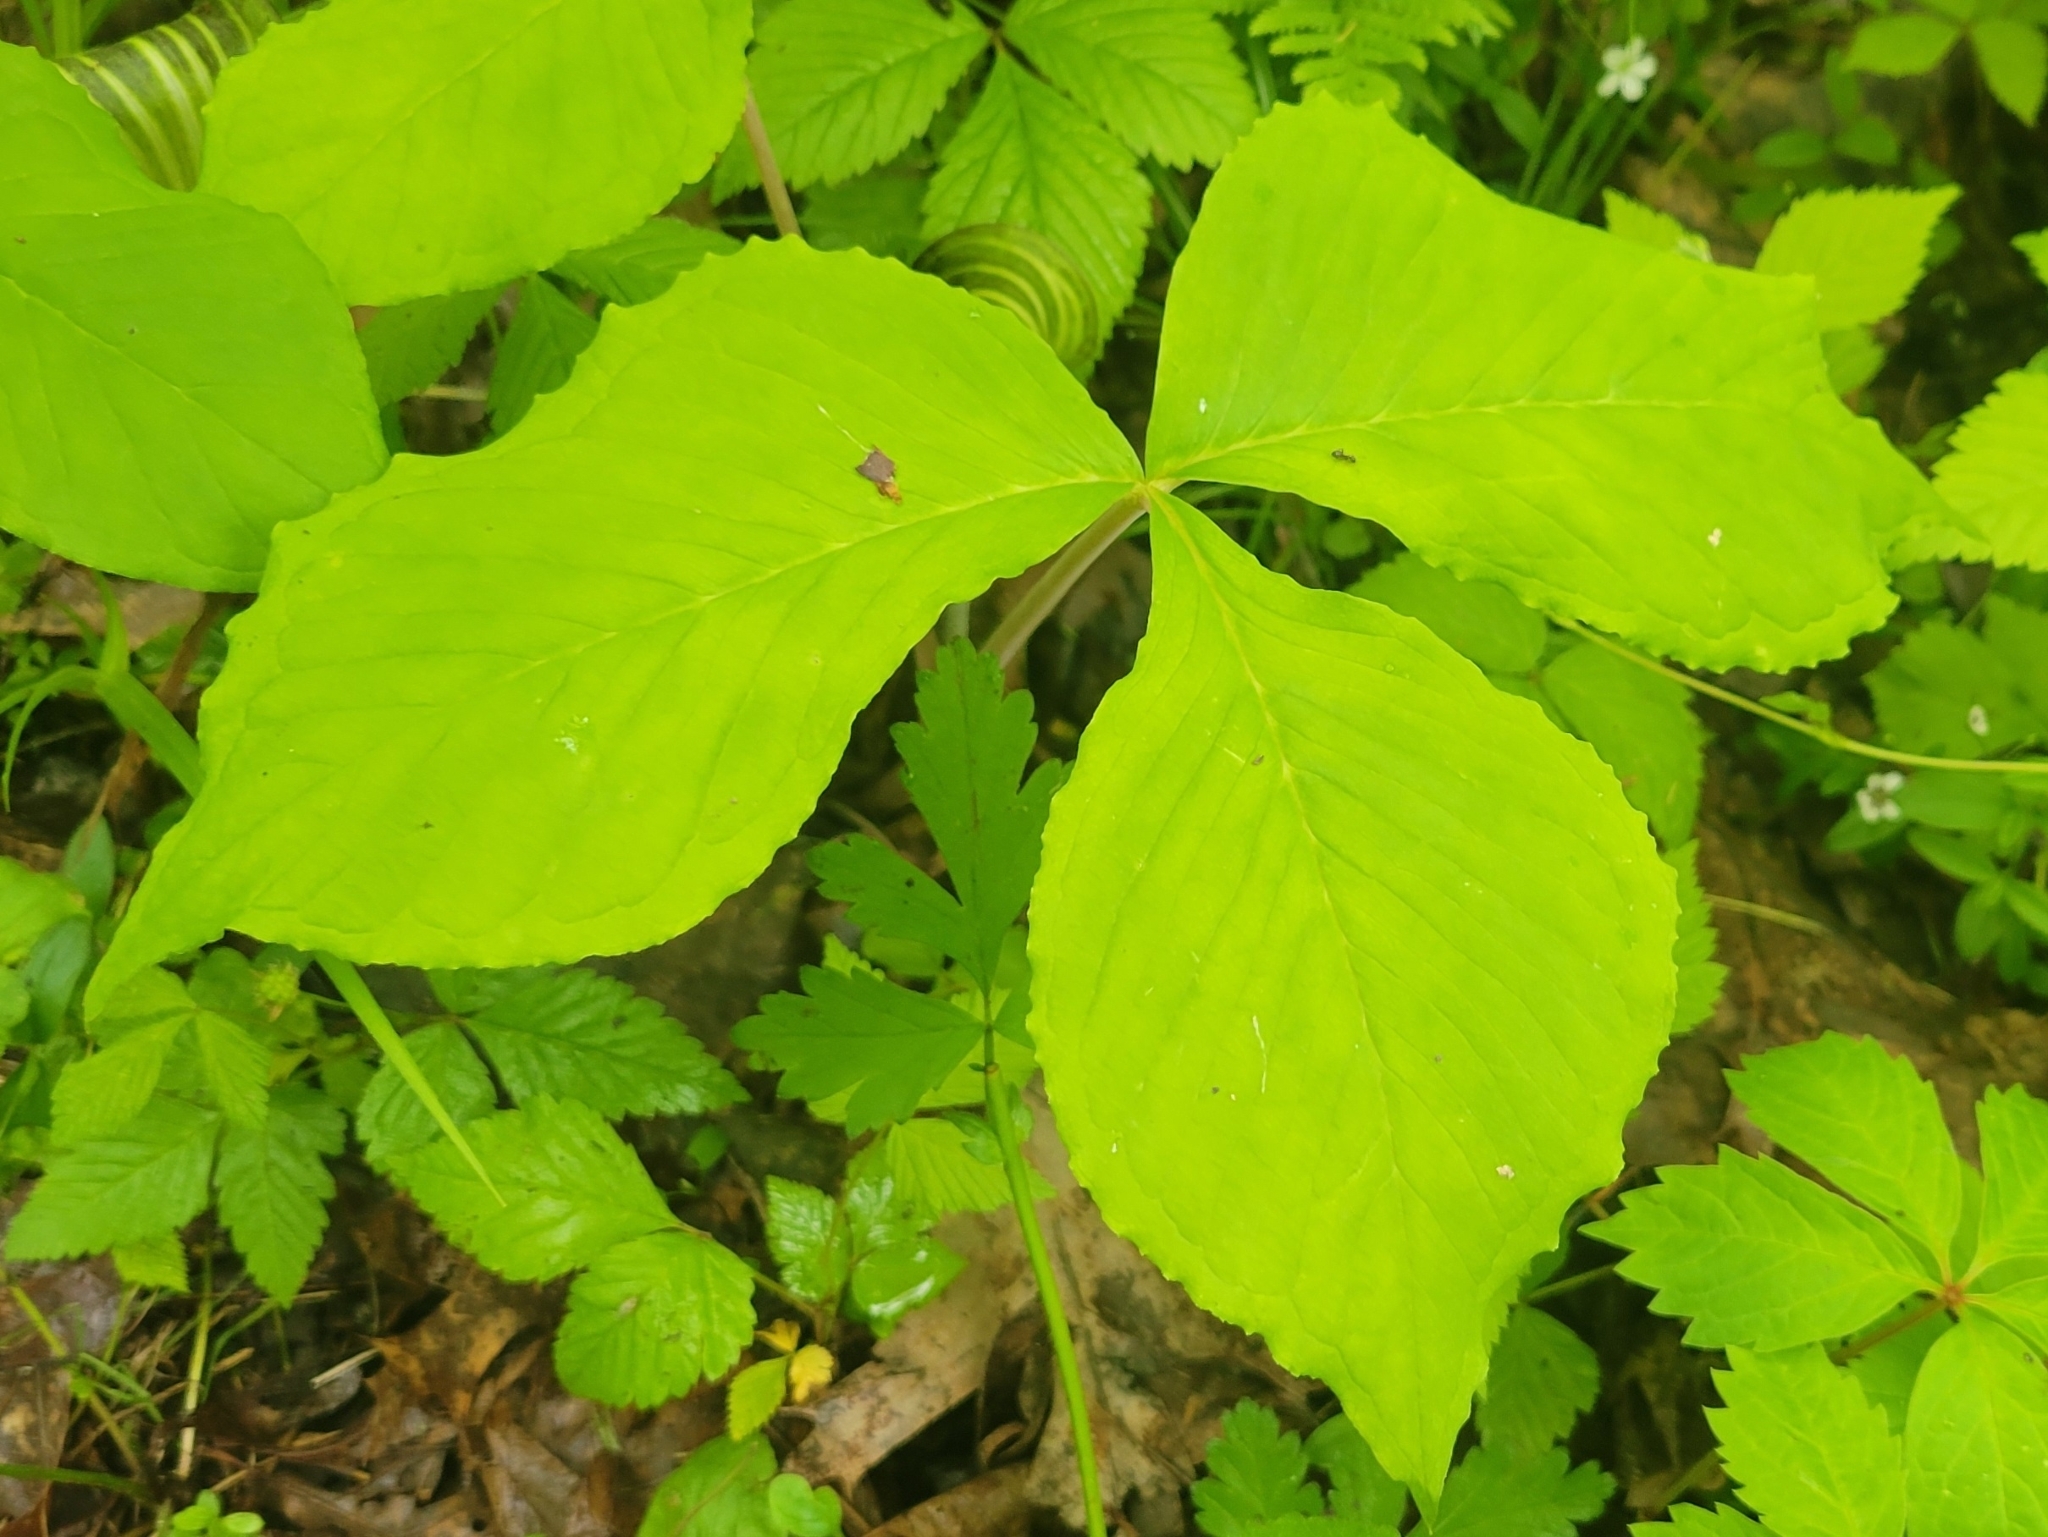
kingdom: Plantae
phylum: Tracheophyta
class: Liliopsida
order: Alismatales
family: Araceae
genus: Arisaema
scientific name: Arisaema triphyllum
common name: Jack-in-the-pulpit
